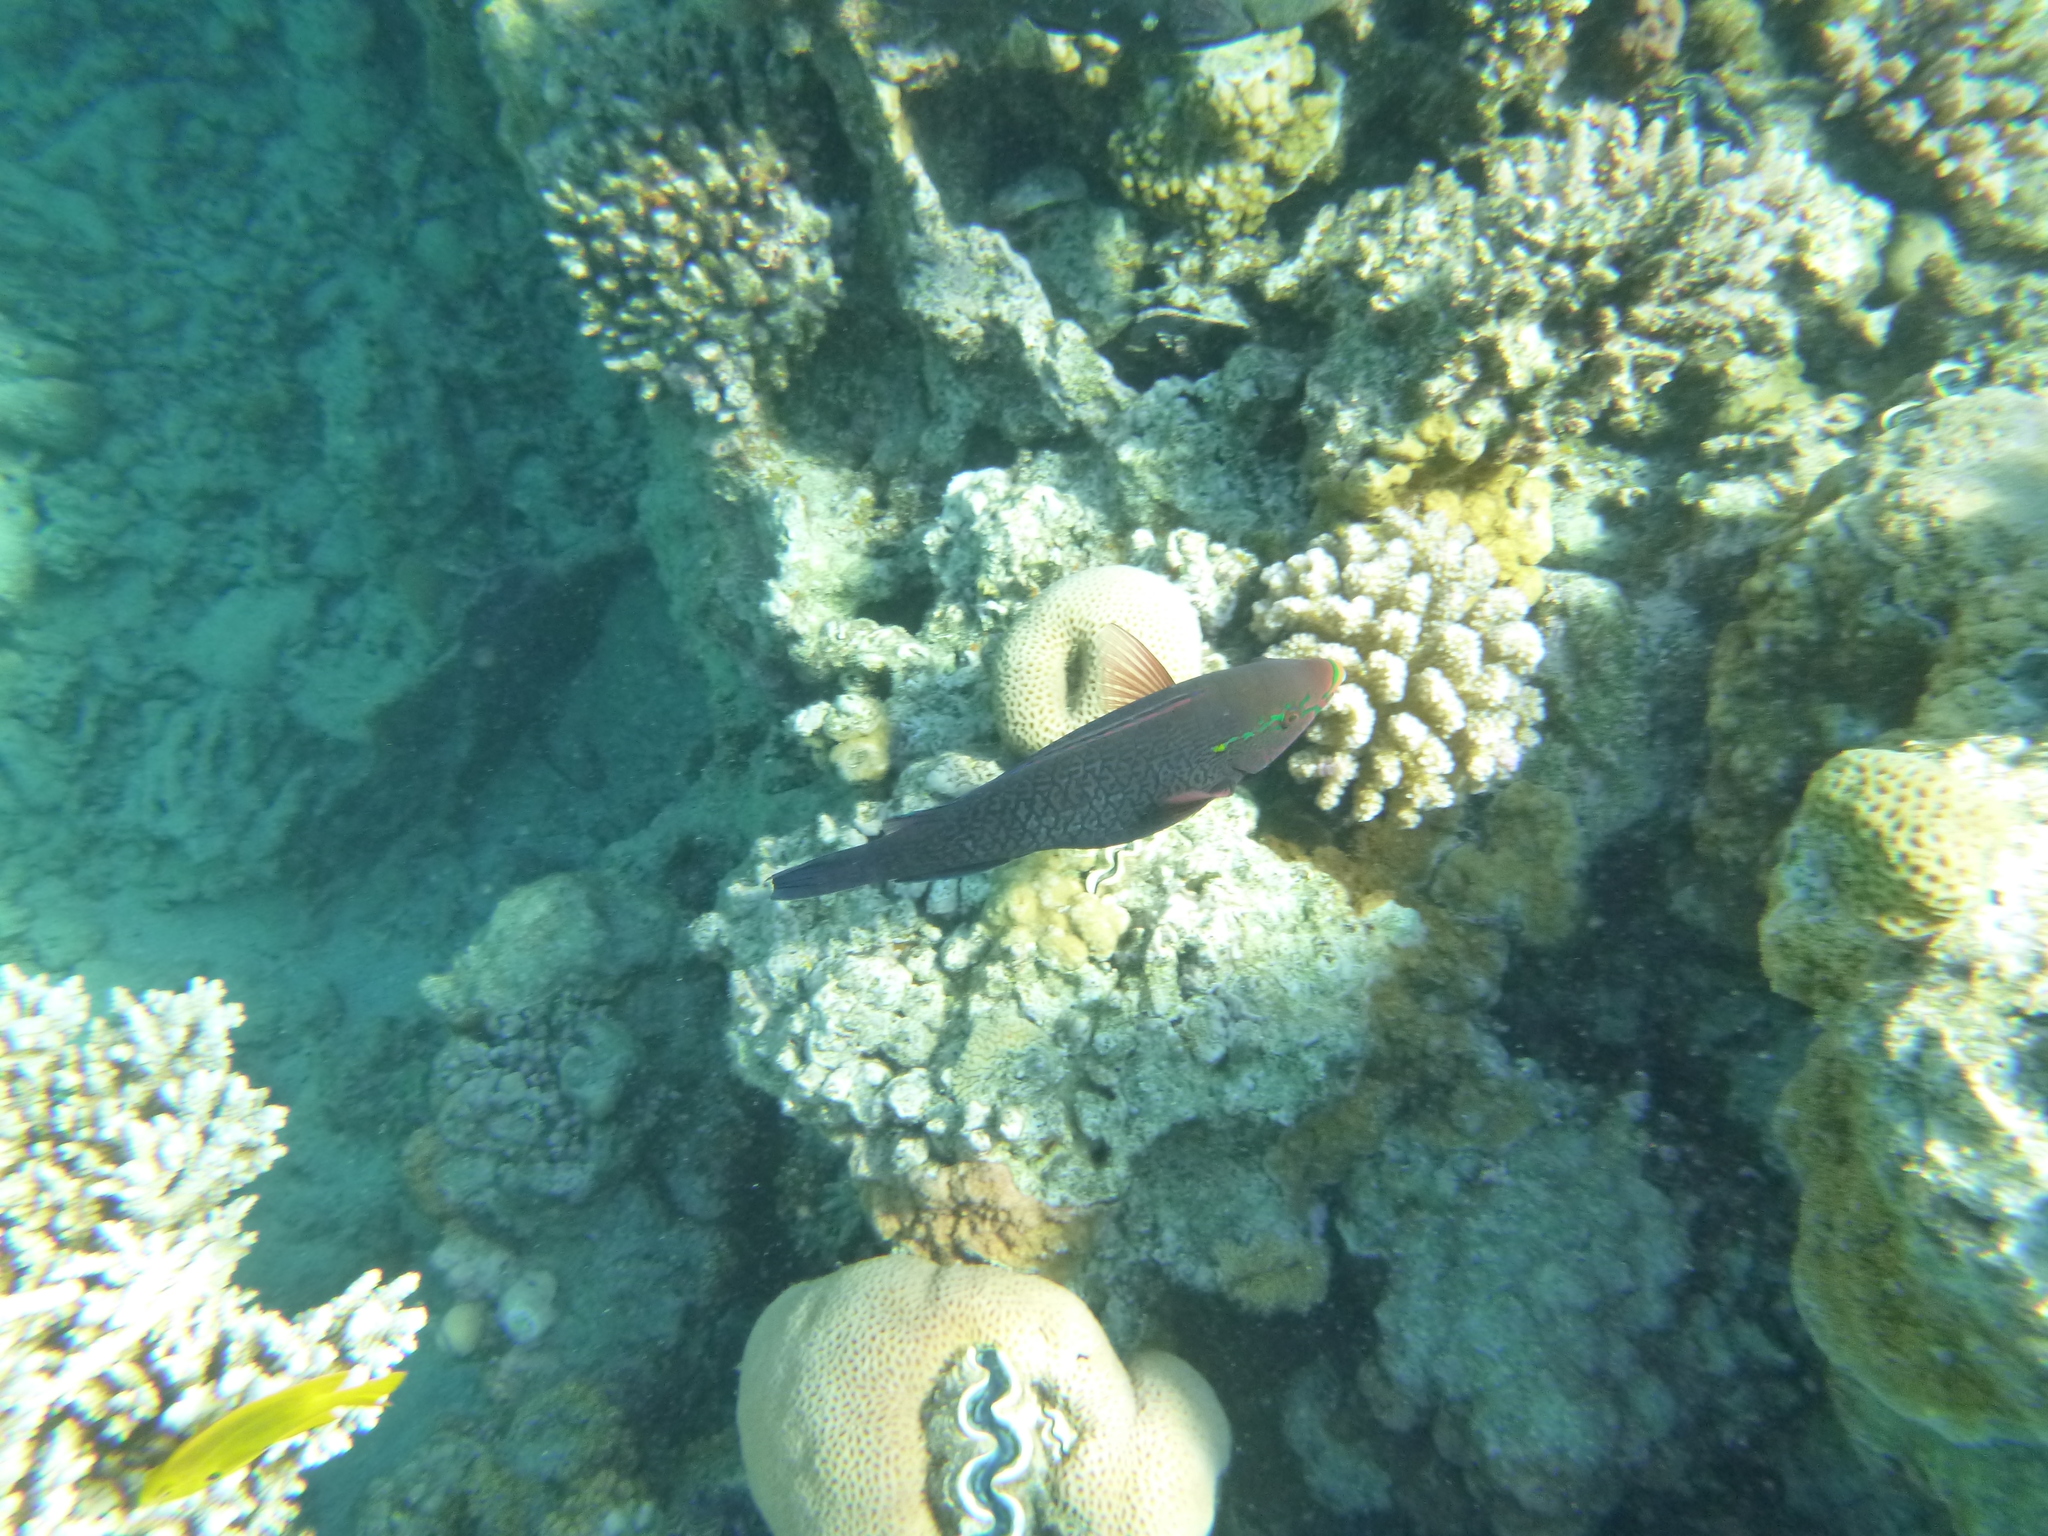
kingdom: Animalia
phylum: Chordata
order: Perciformes
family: Scaridae
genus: Scarus
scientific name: Scarus niger
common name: Dusky parrotfish
